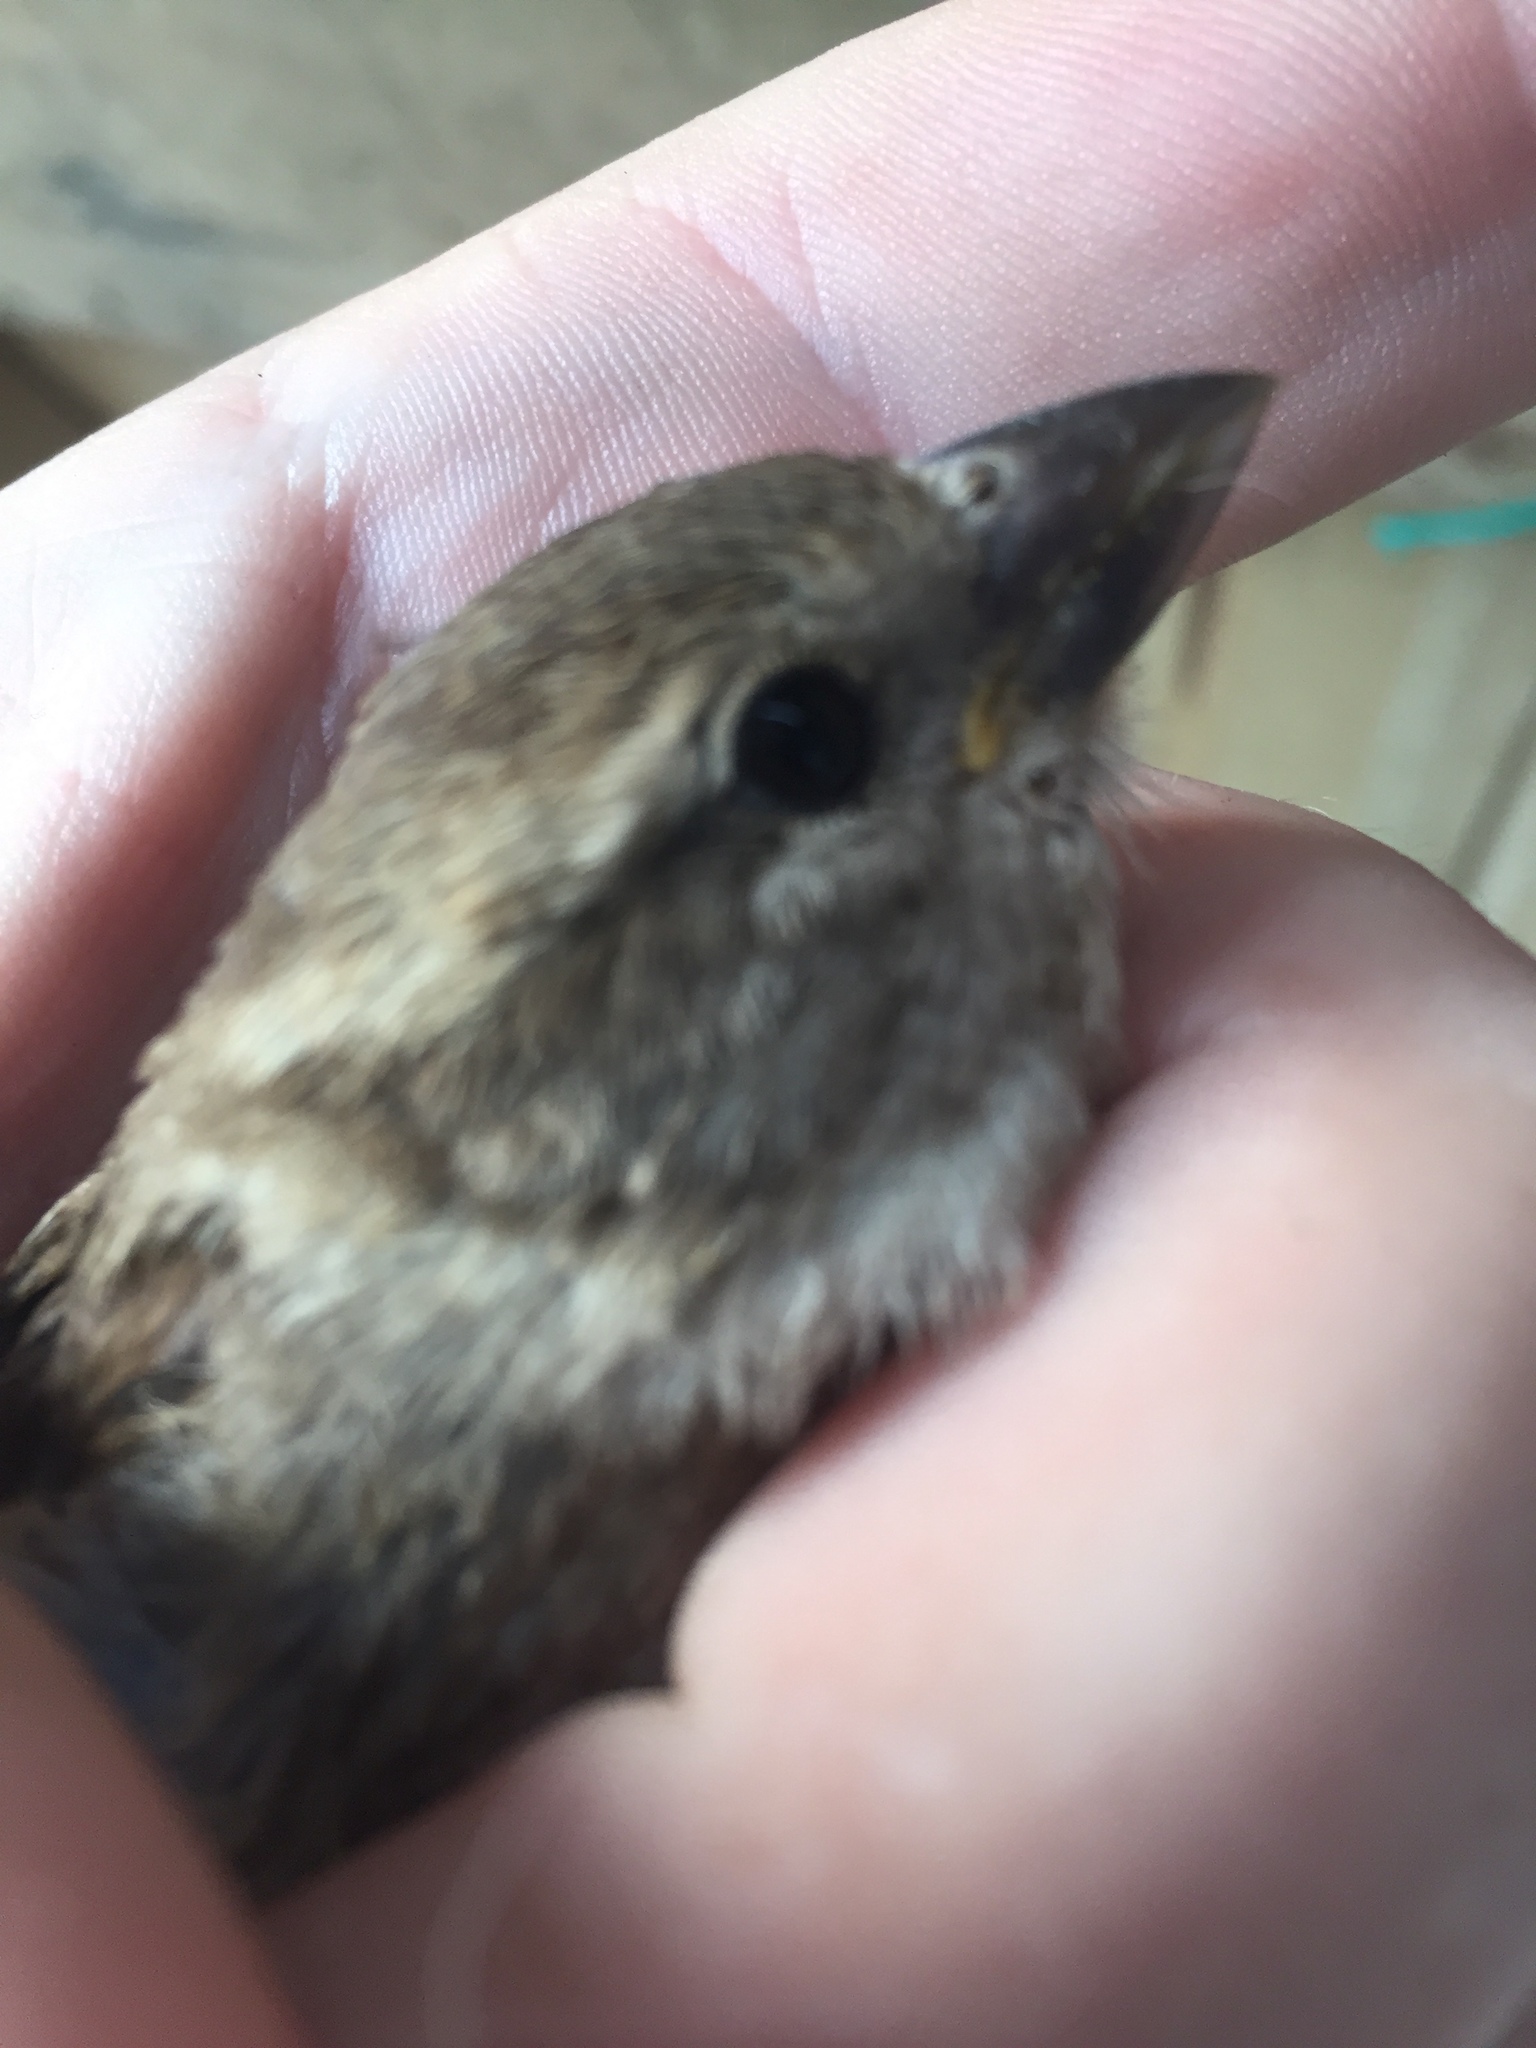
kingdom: Animalia
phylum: Chordata
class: Aves
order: Passeriformes
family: Passeridae
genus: Passer
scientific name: Passer domesticus
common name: House sparrow
